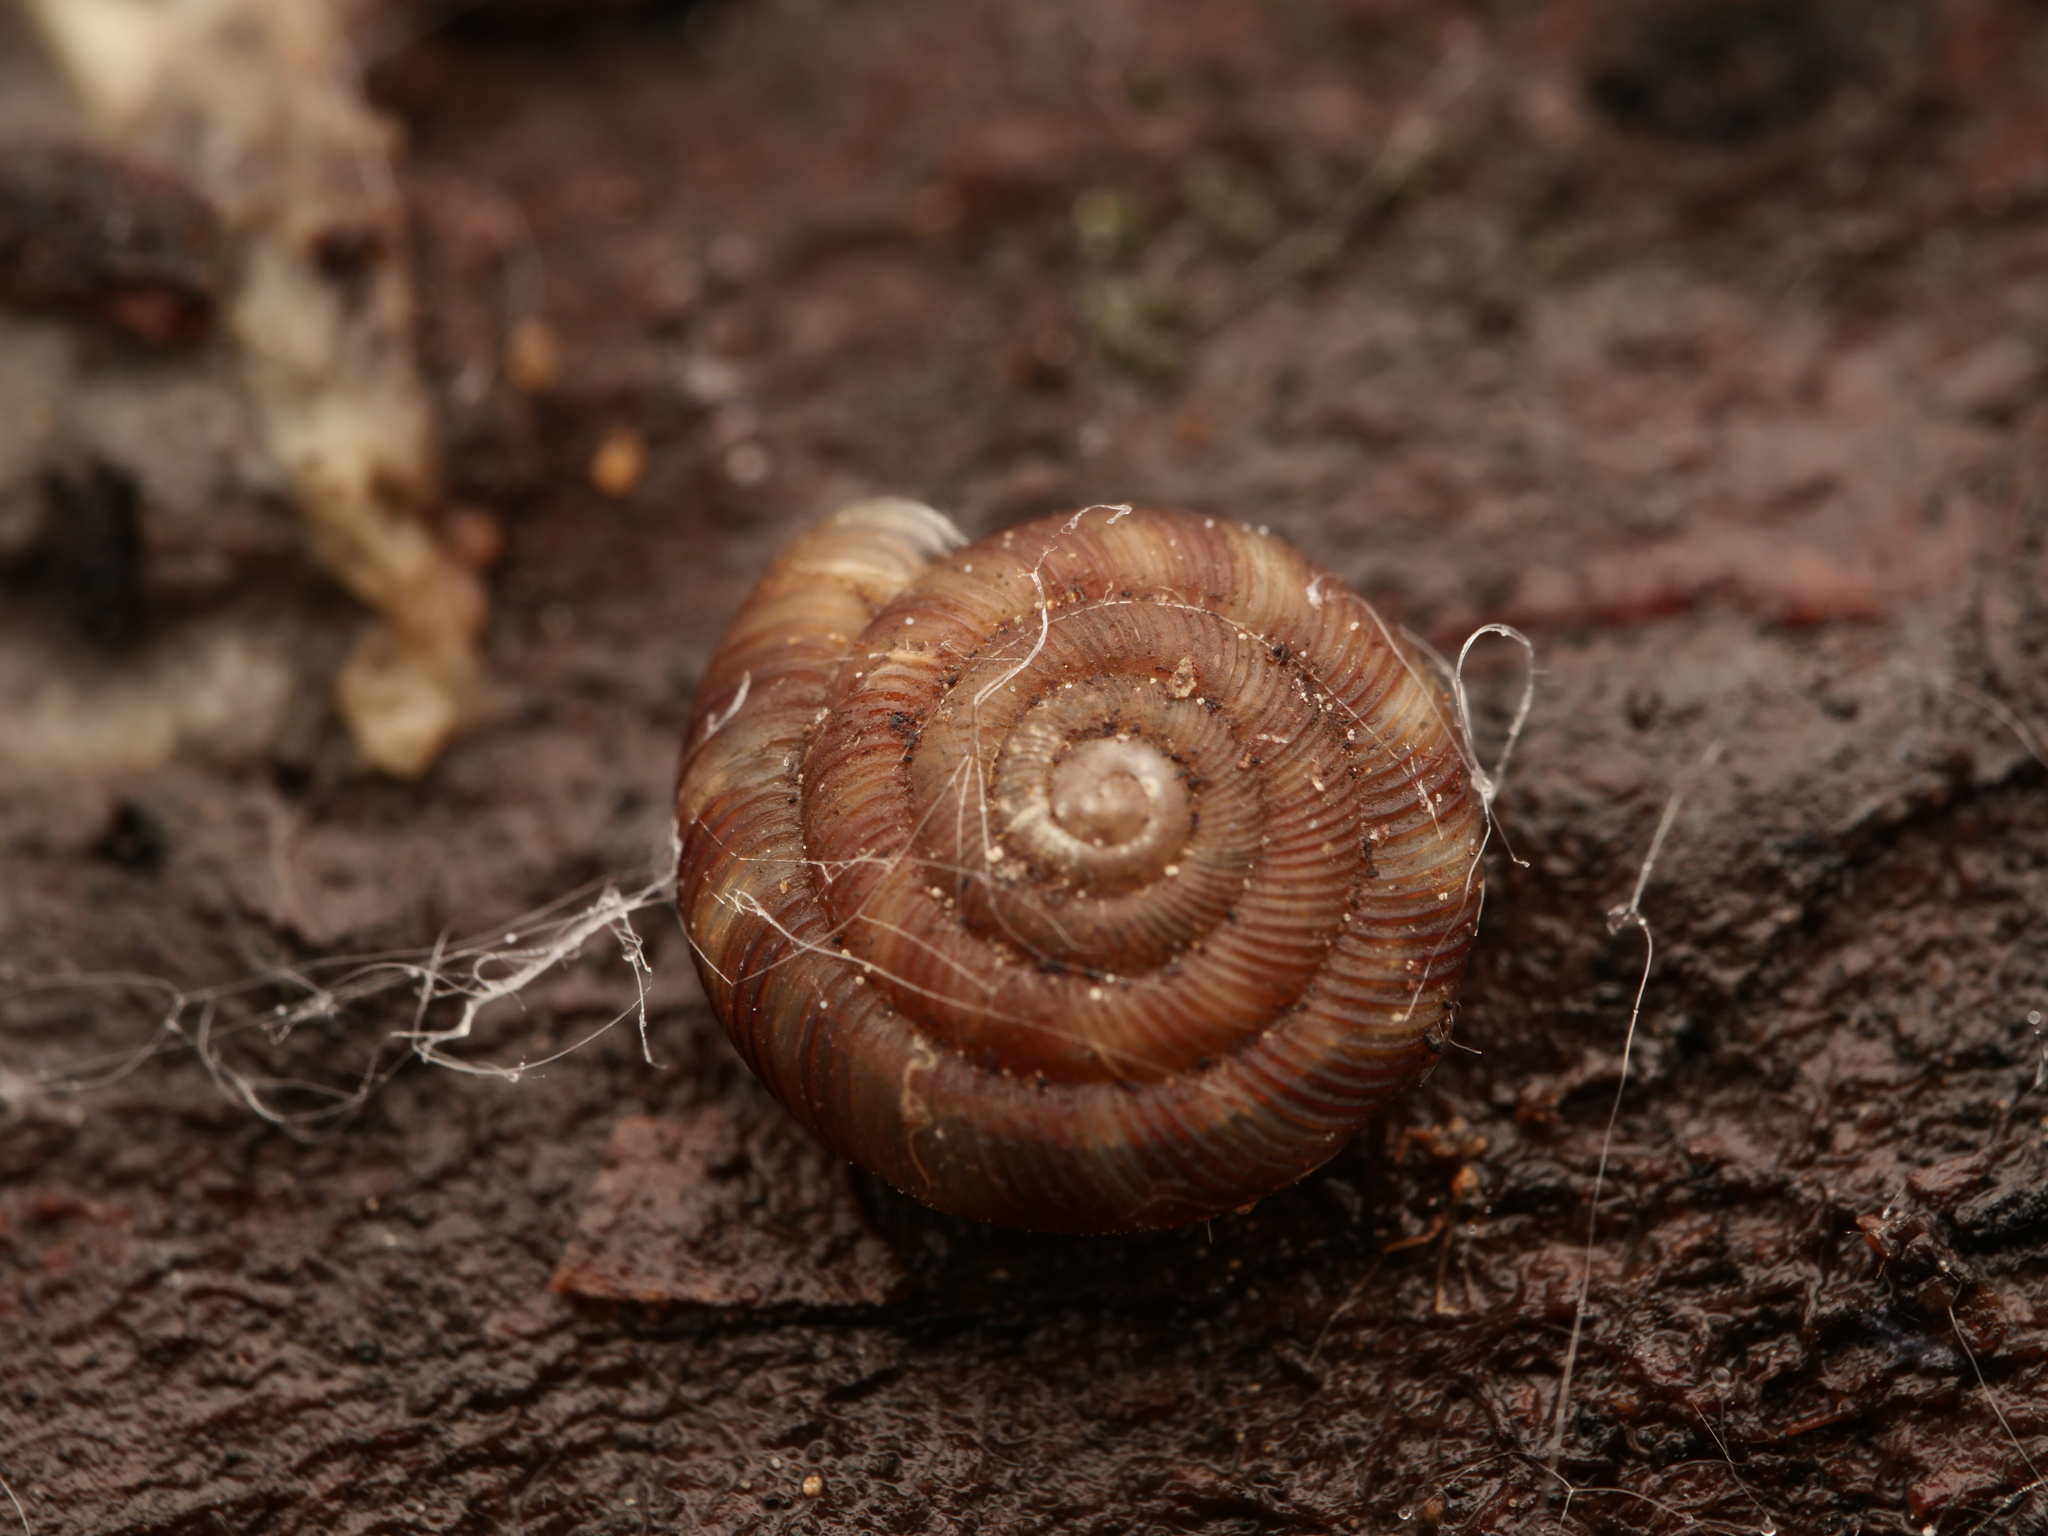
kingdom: Animalia
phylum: Mollusca
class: Gastropoda
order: Stylommatophora
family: Discidae
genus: Discus
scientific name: Discus rotundatus
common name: Rounded snail
